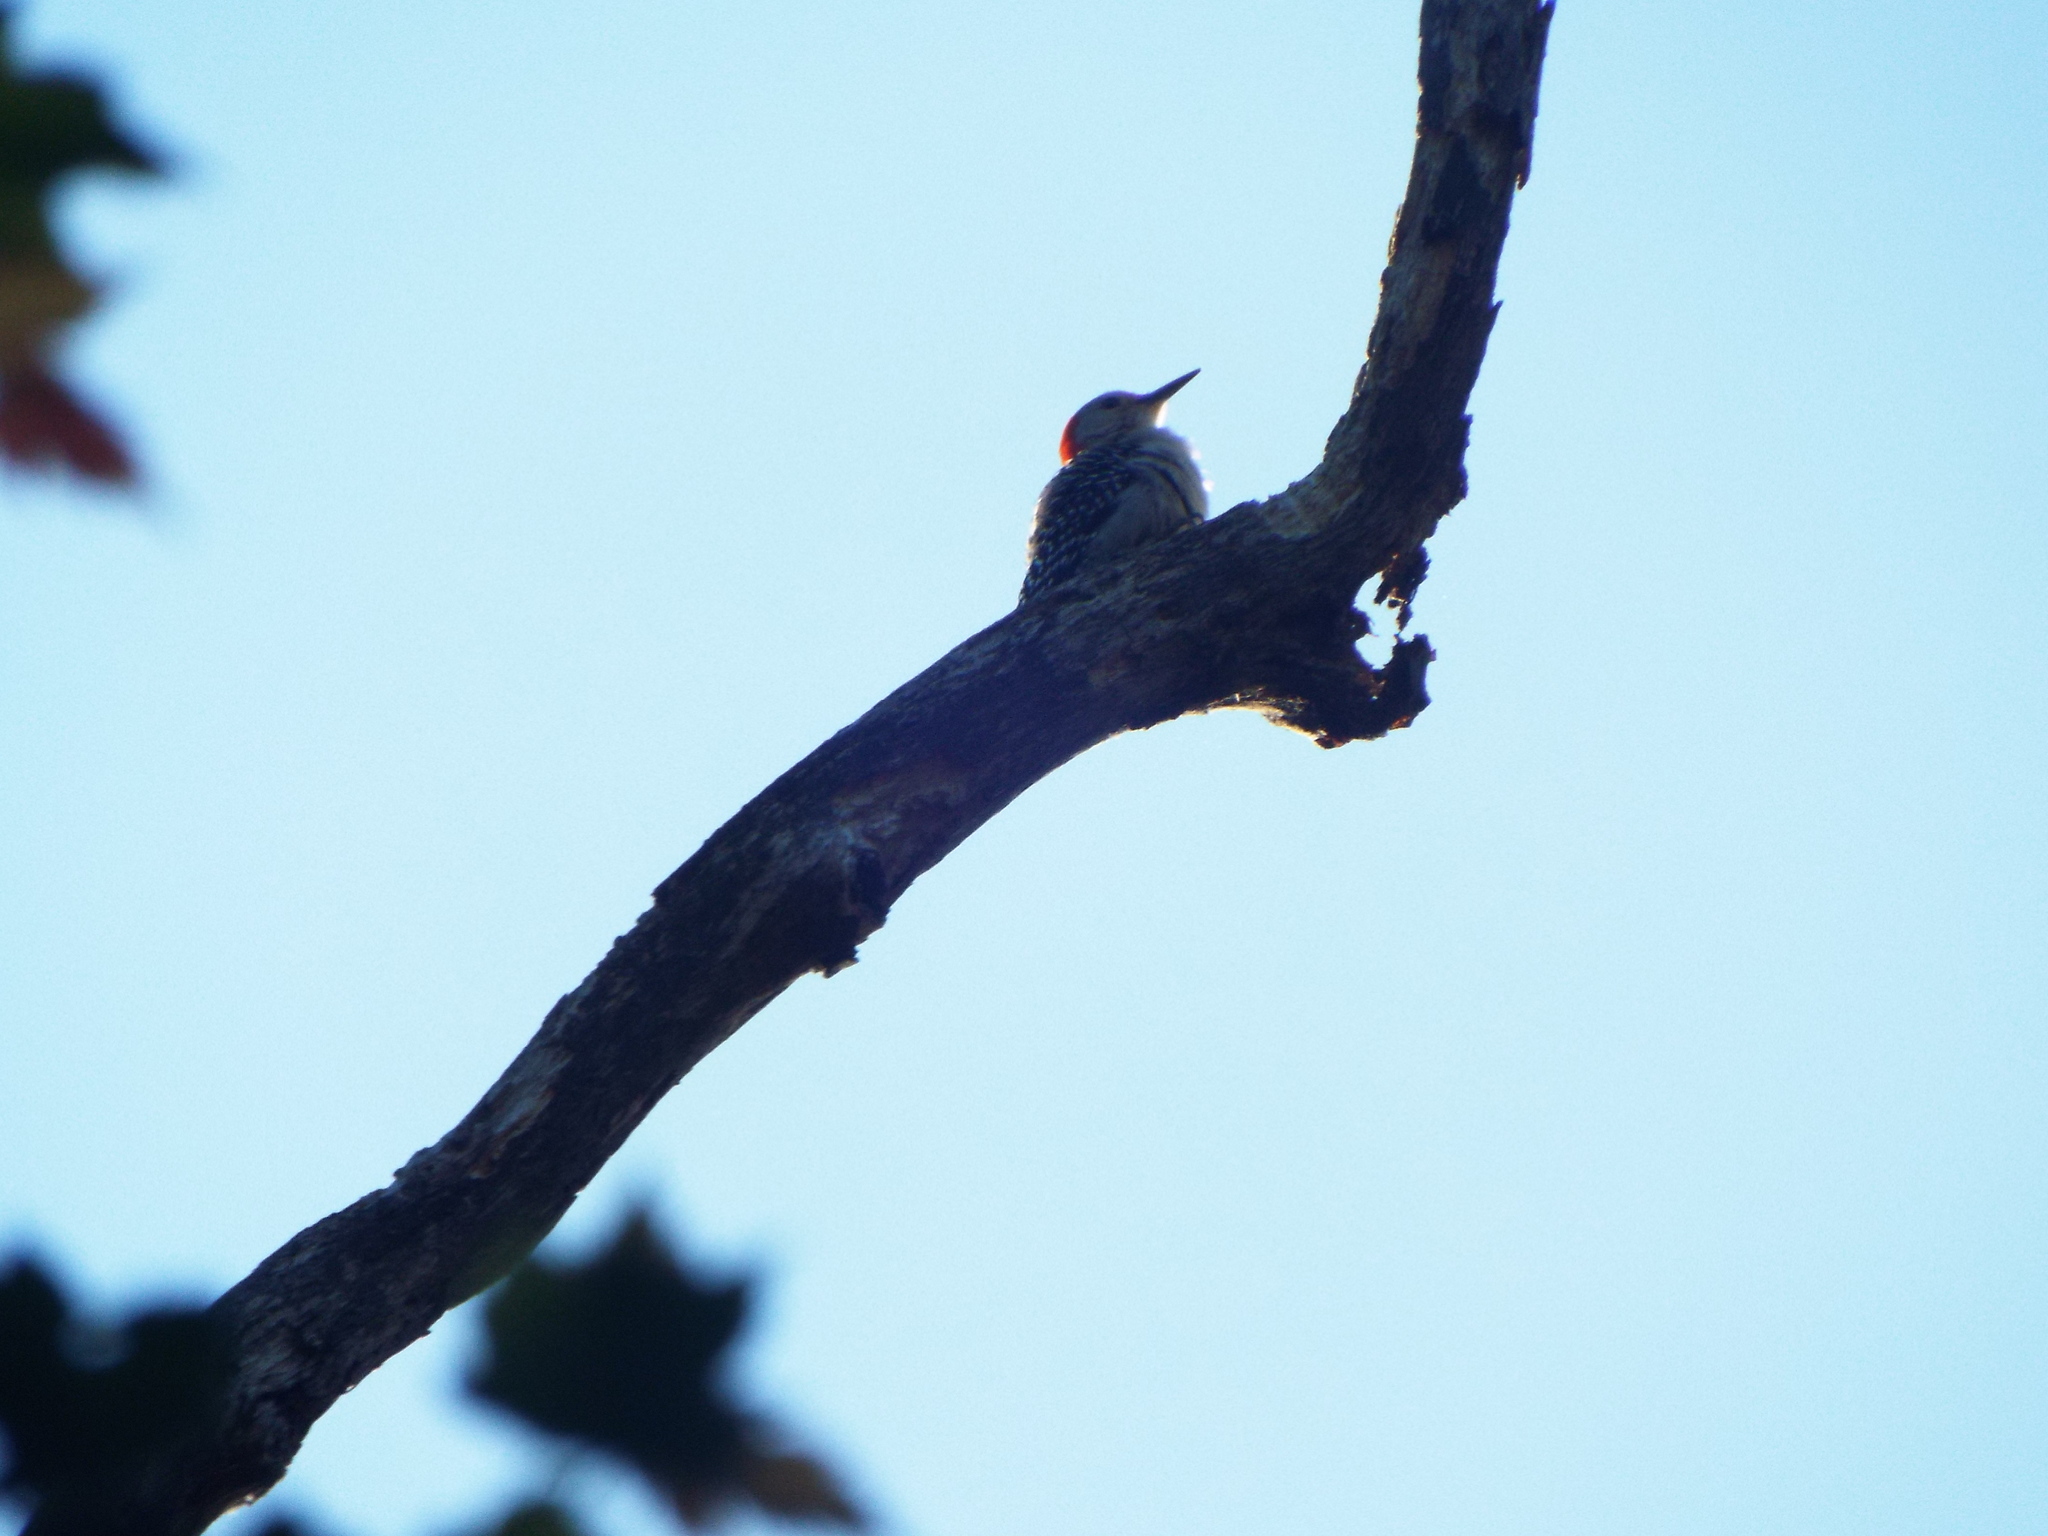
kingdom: Animalia
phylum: Chordata
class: Aves
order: Piciformes
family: Picidae
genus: Melanerpes
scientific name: Melanerpes carolinus
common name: Red-bellied woodpecker
